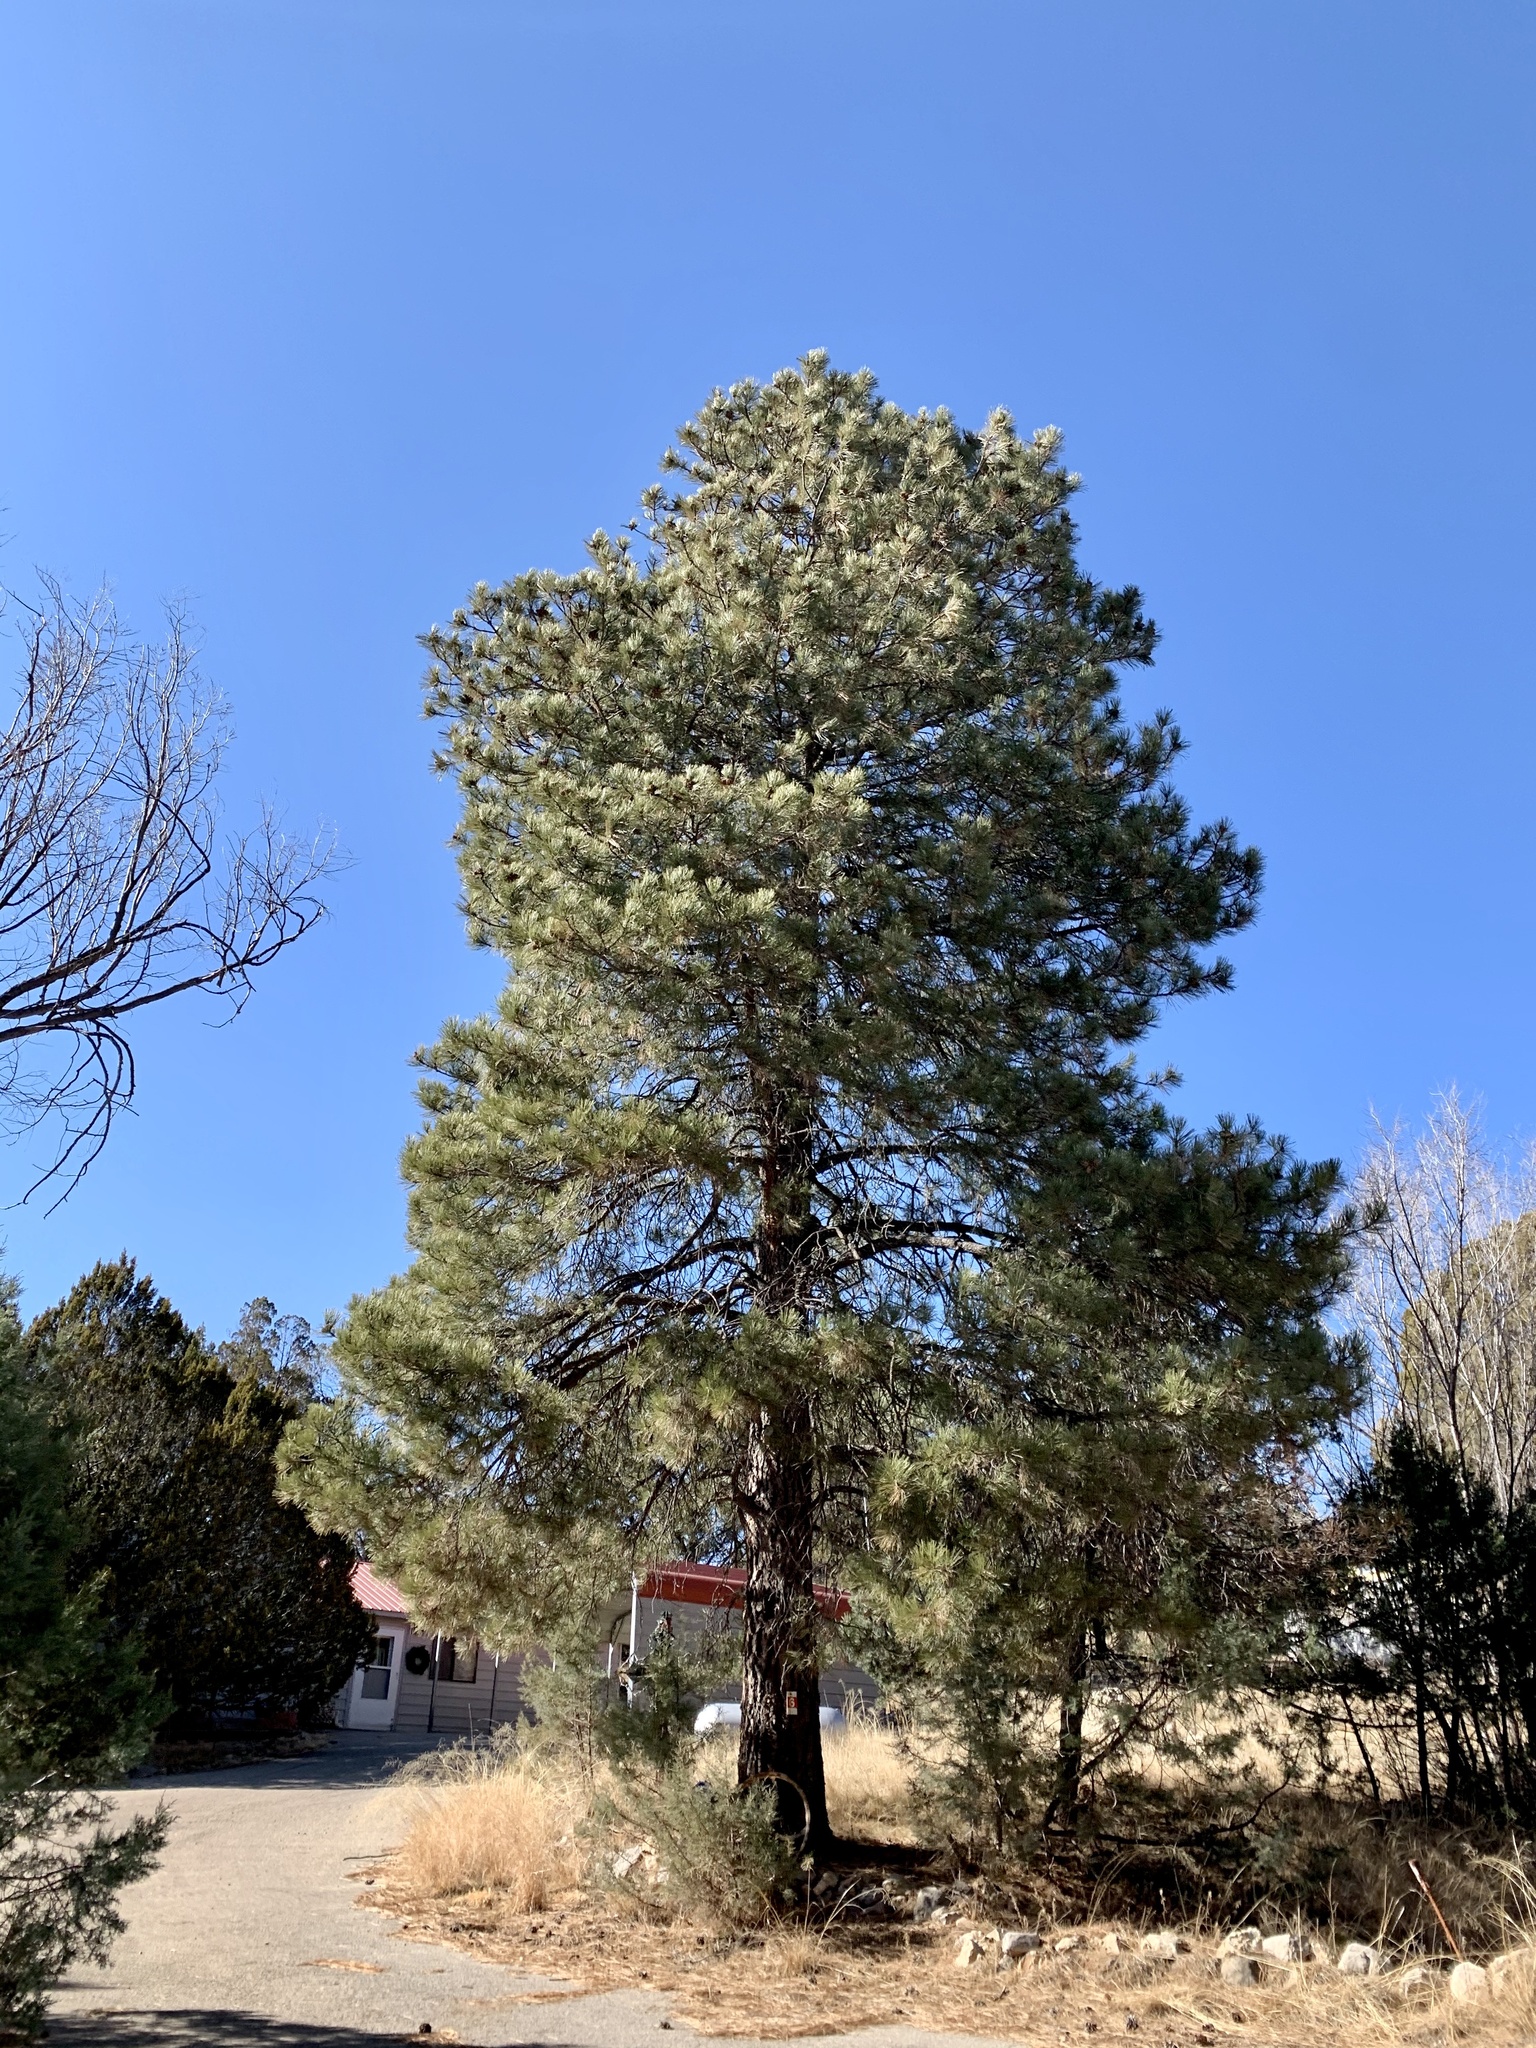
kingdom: Plantae
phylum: Tracheophyta
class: Pinopsida
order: Pinales
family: Pinaceae
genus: Pinus
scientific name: Pinus ponderosa
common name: Western yellow-pine
